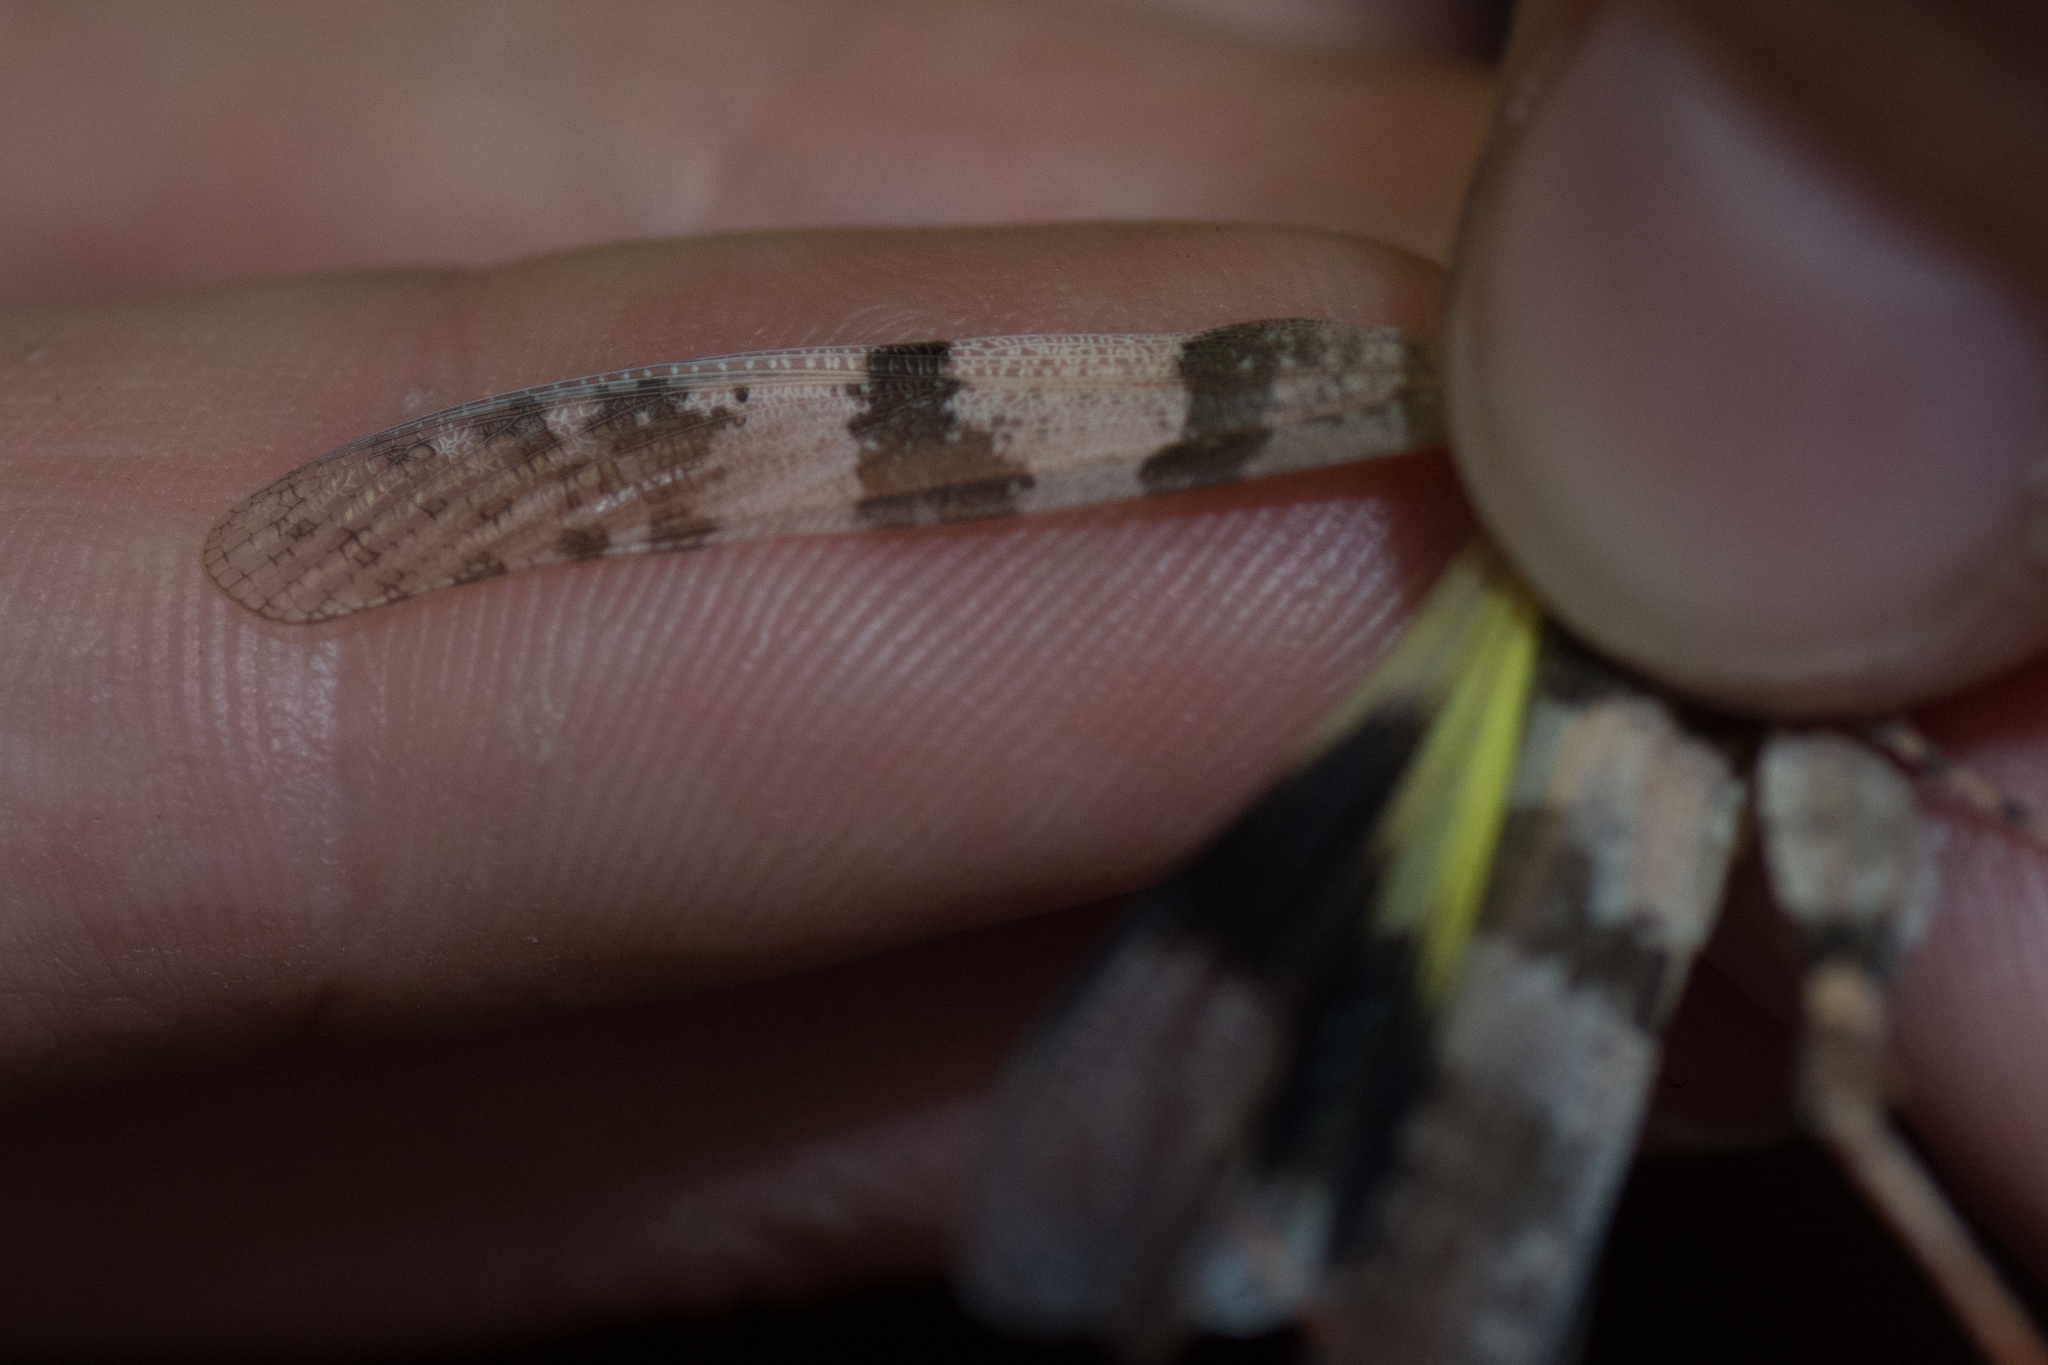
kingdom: Animalia
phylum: Arthropoda
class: Insecta
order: Orthoptera
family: Acrididae
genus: Trimerotropis
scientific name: Trimerotropis californica
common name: California band-winged grasshopper
